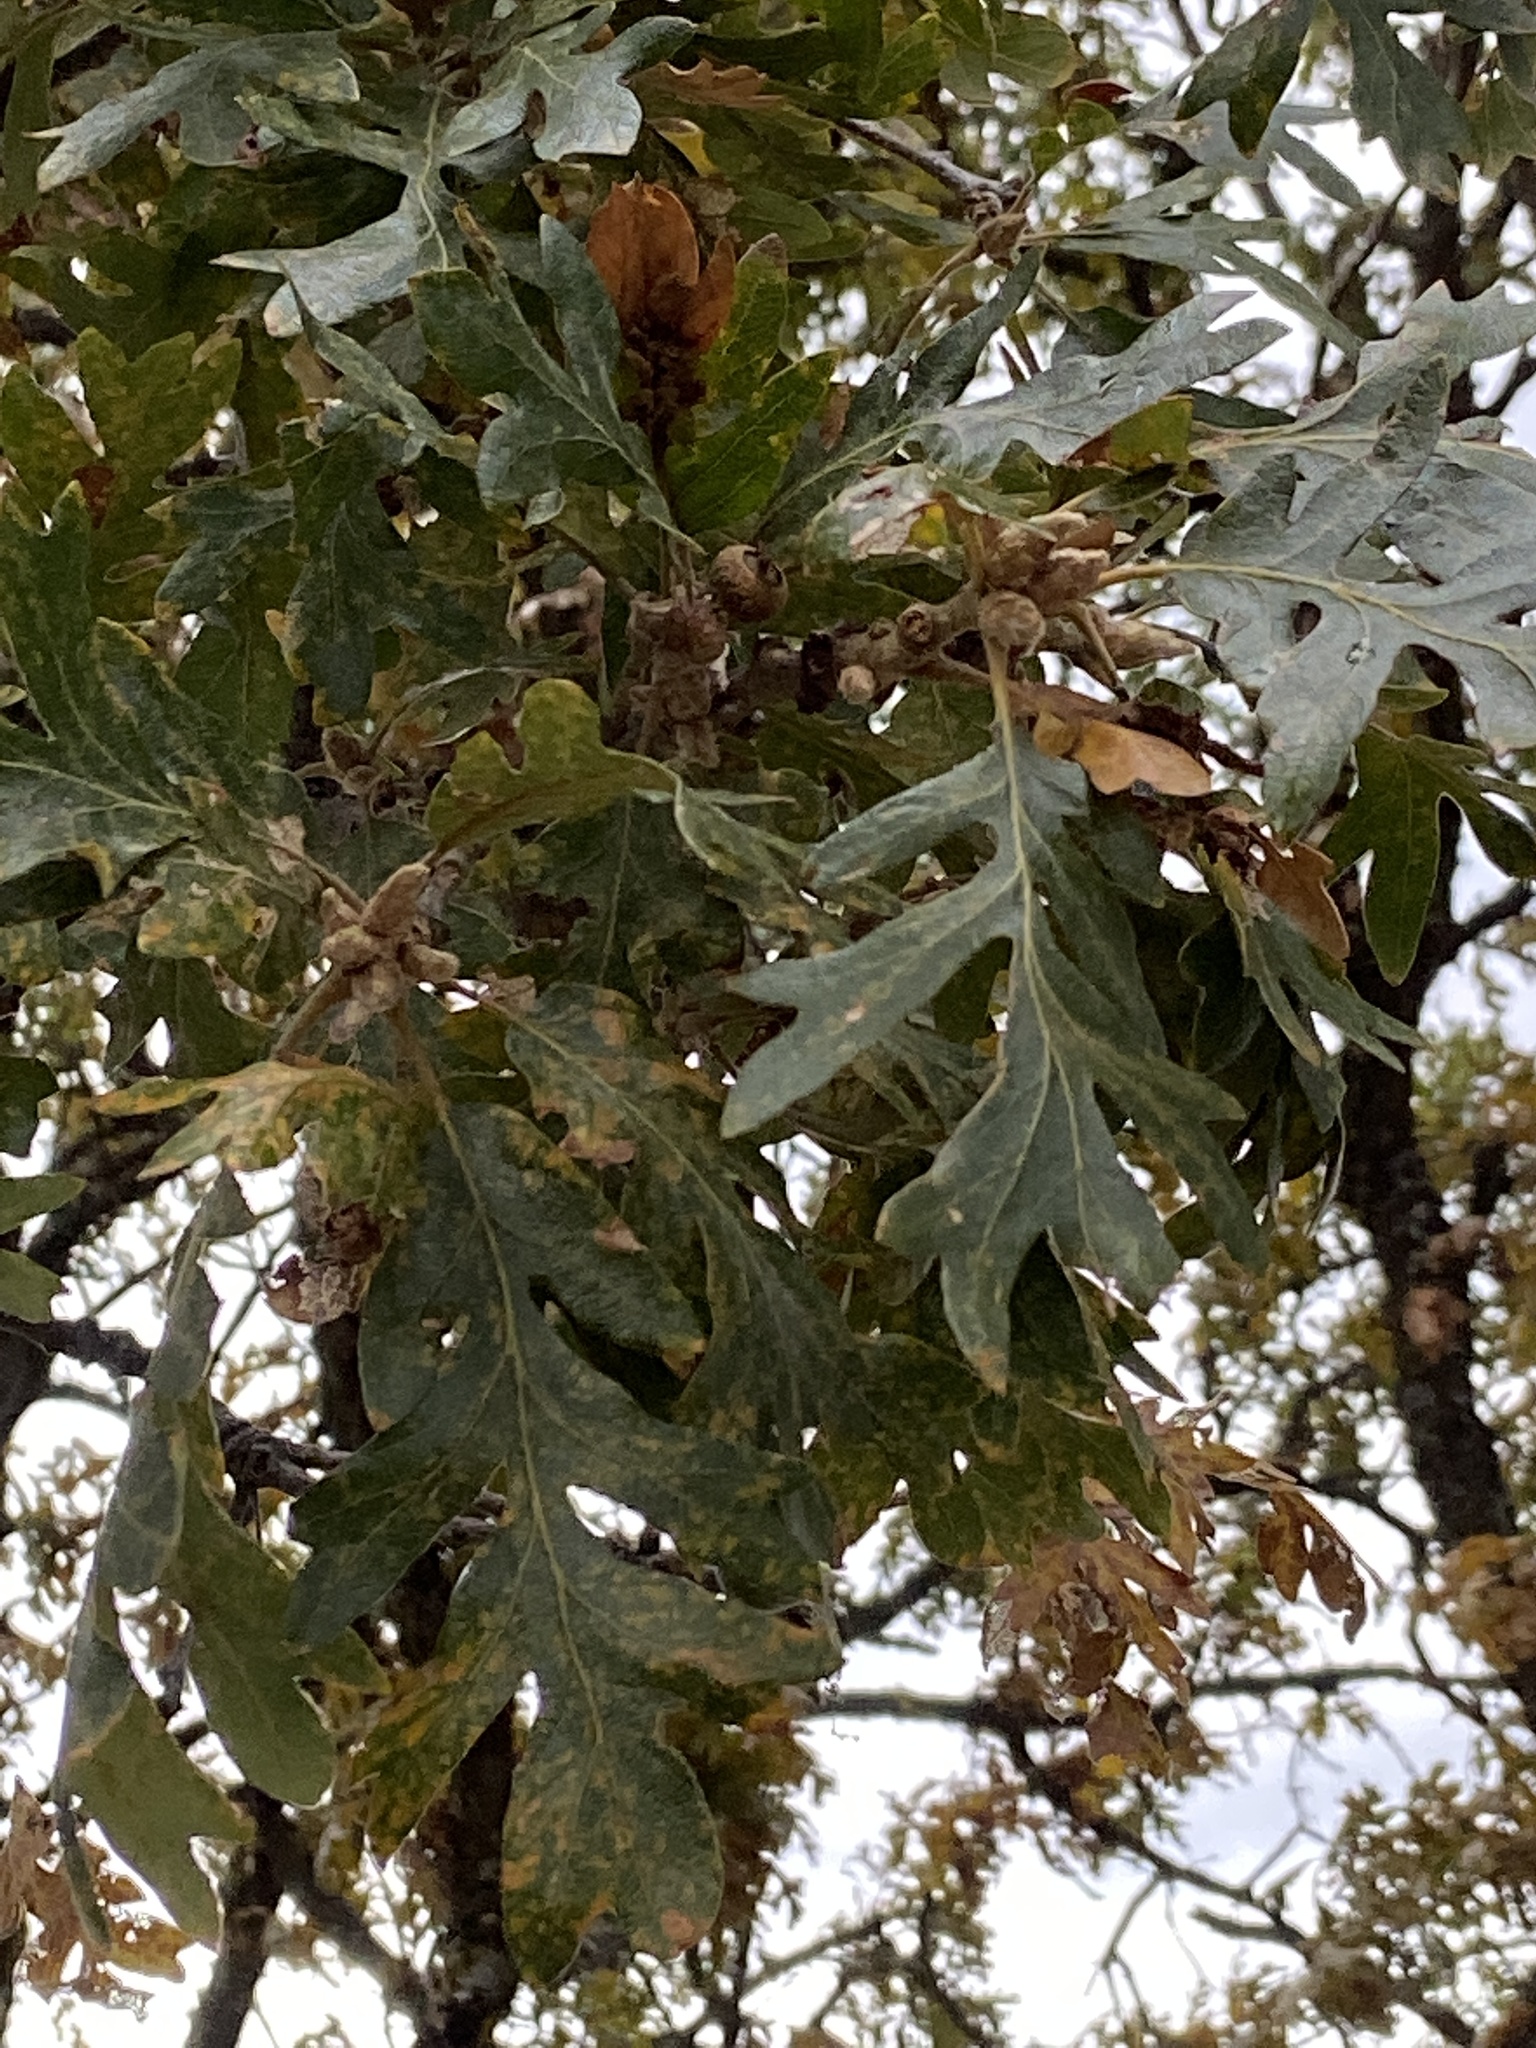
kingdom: Plantae
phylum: Tracheophyta
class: Magnoliopsida
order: Fagales
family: Fagaceae
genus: Quercus
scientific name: Quercus garryana
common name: Garry oak
